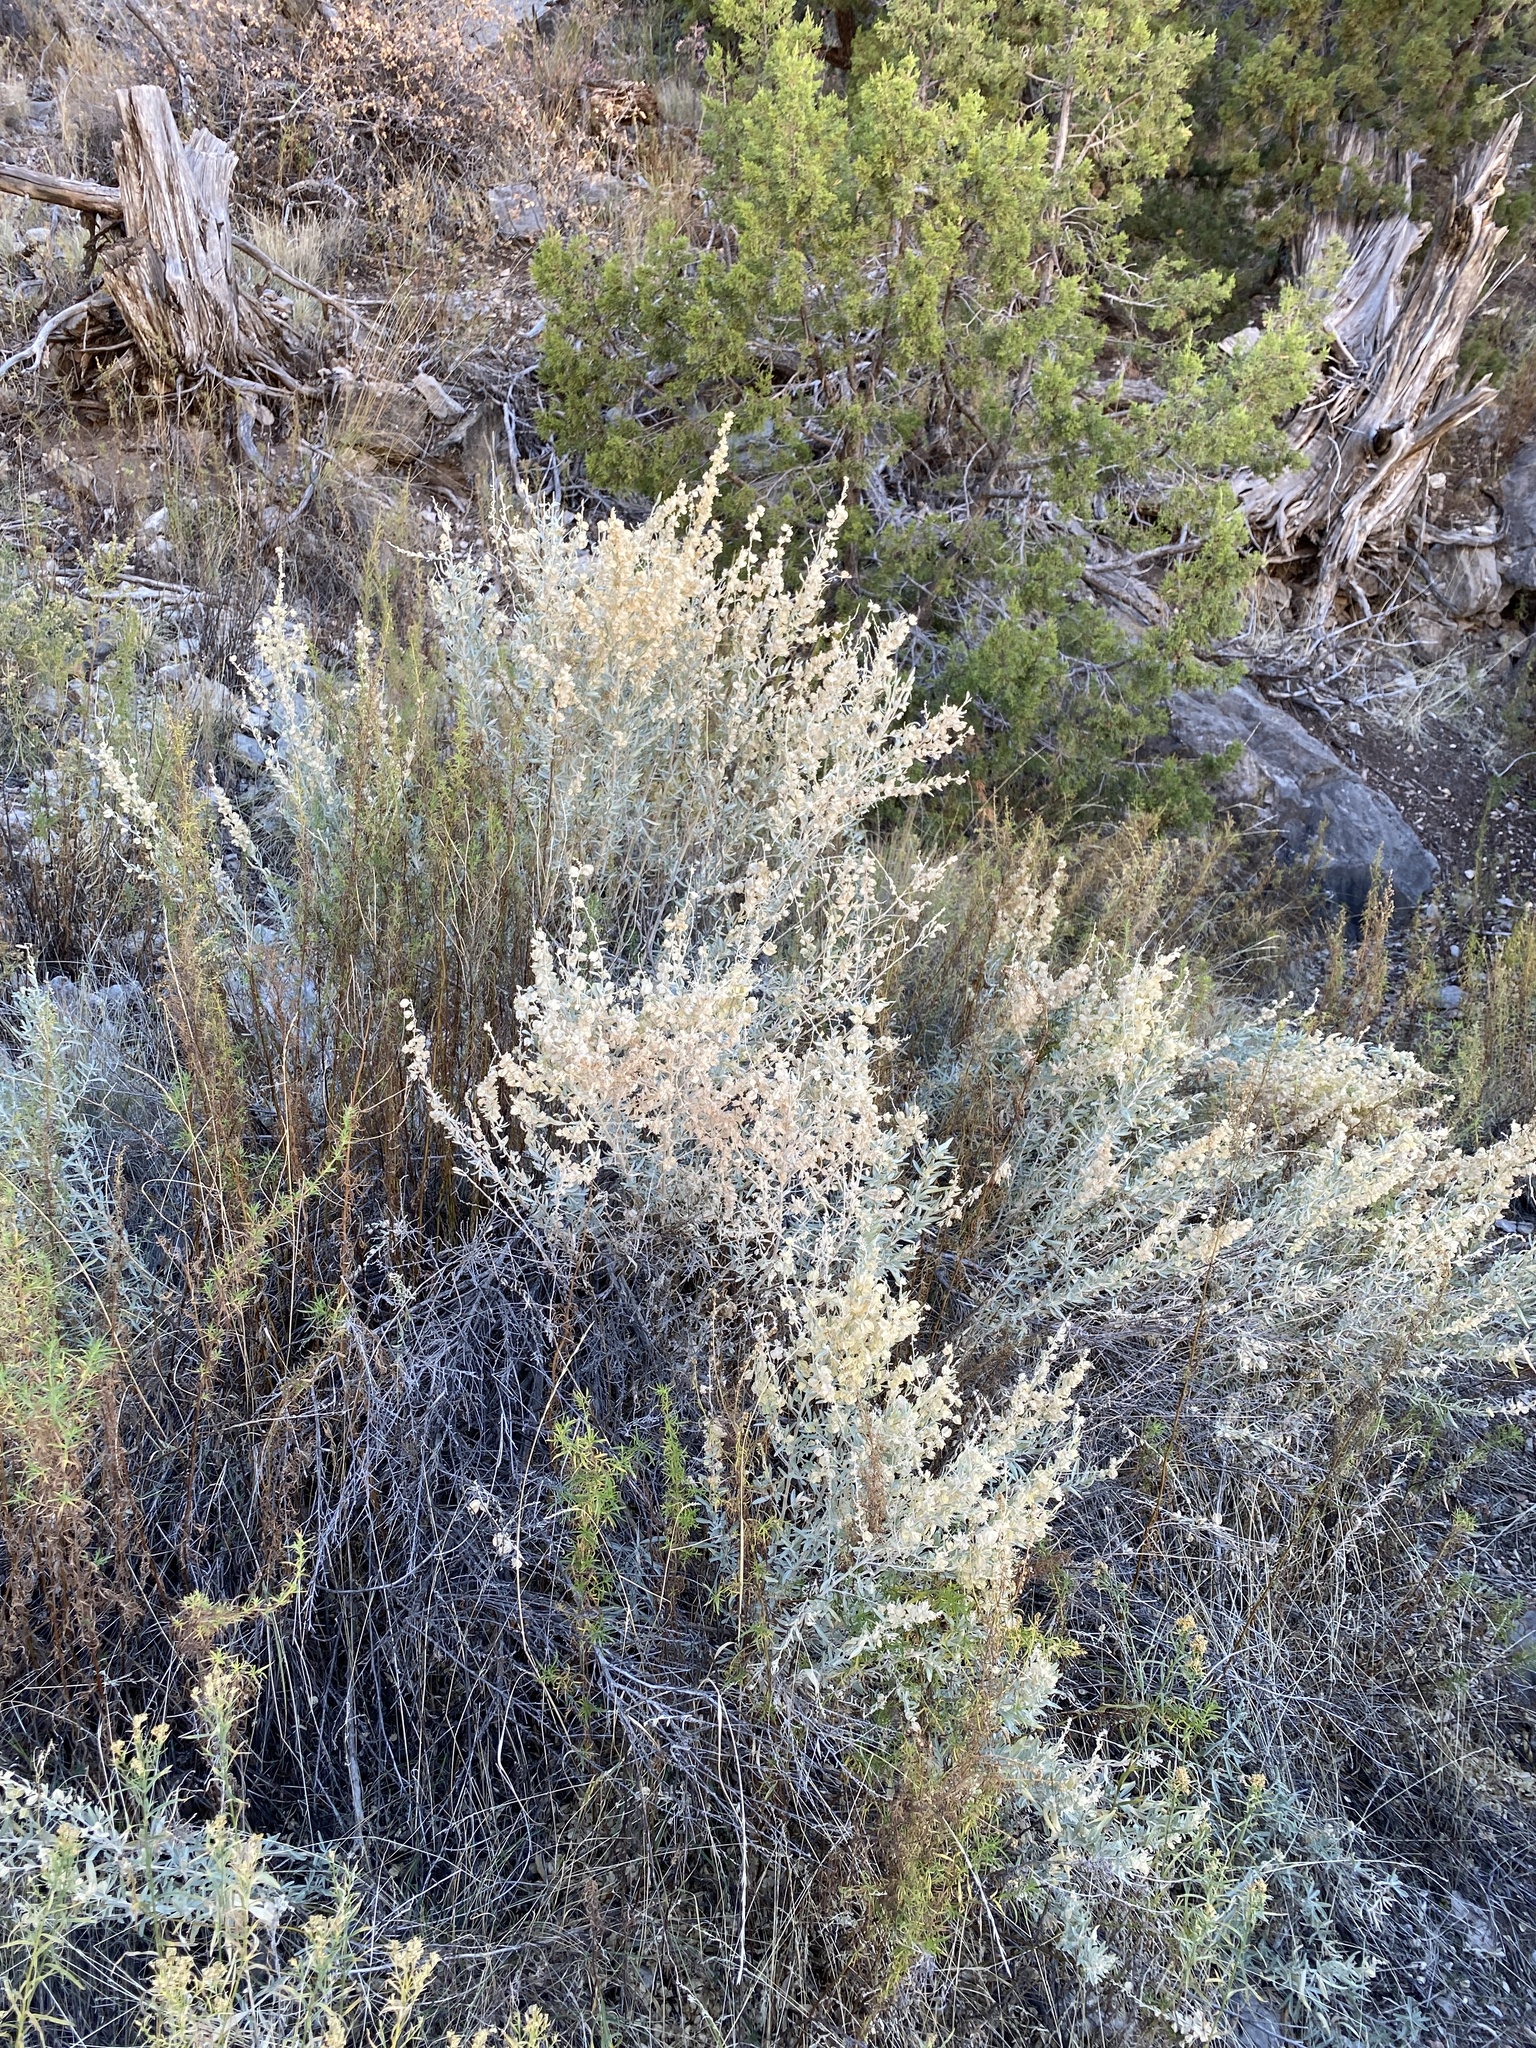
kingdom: Plantae
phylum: Tracheophyta
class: Magnoliopsida
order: Caryophyllales
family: Amaranthaceae
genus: Atriplex
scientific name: Atriplex canescens
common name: Four-wing saltbush
